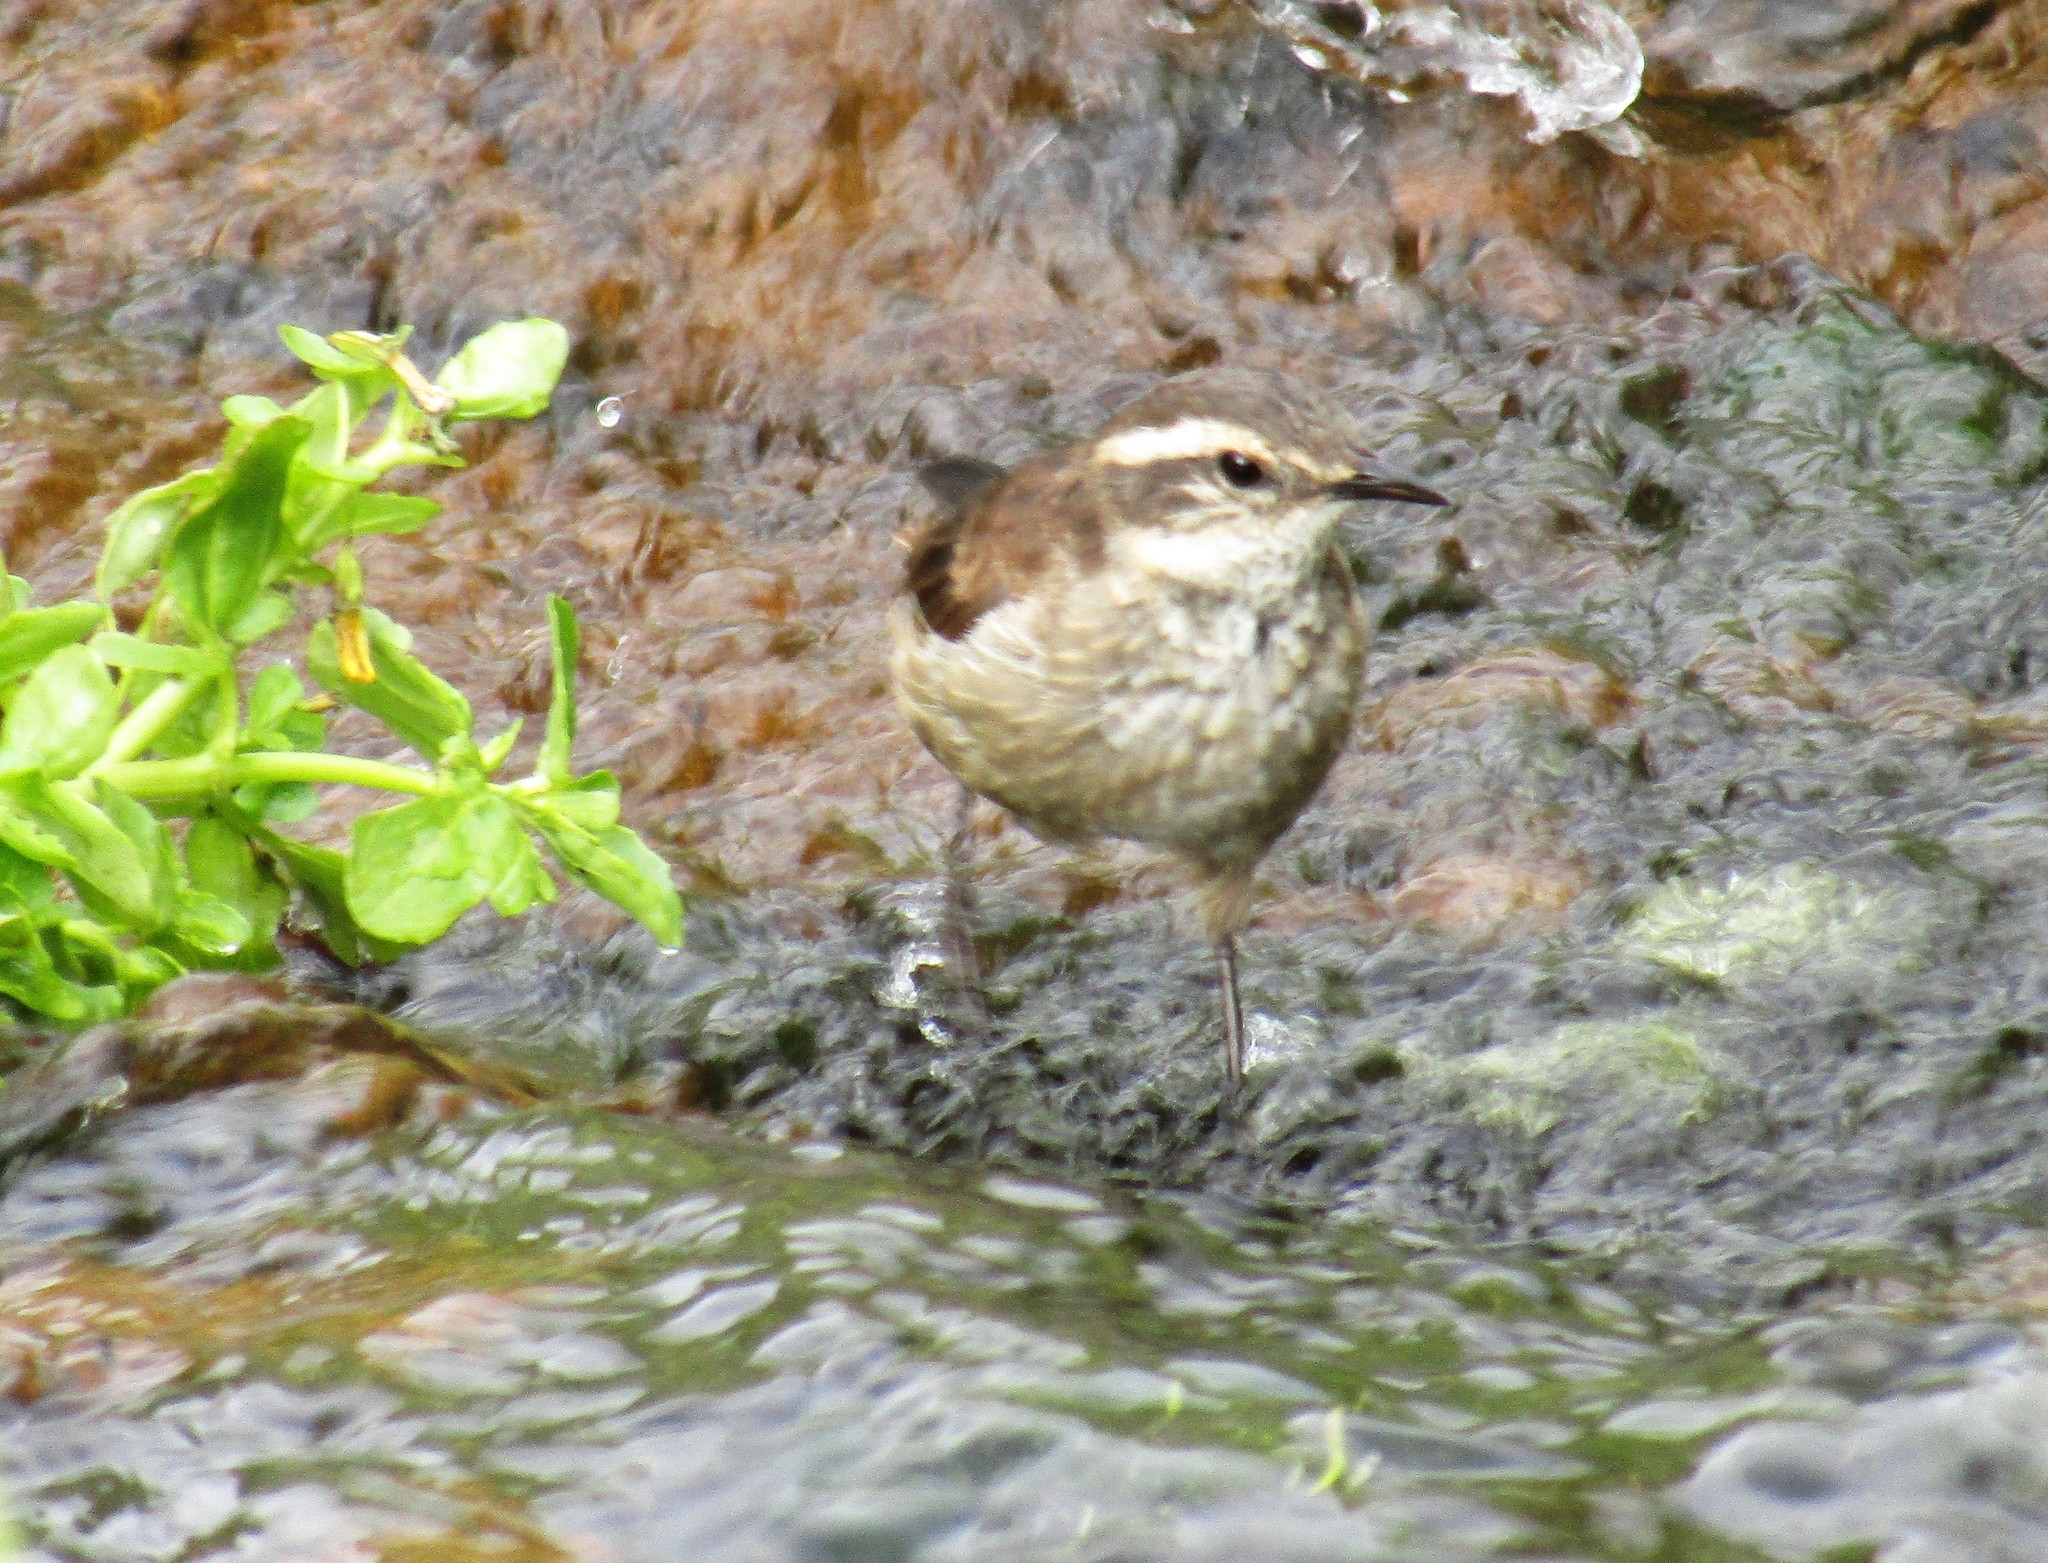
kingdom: Animalia
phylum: Chordata
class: Aves
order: Passeriformes
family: Furnariidae
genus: Cinclodes
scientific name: Cinclodes comechingonus
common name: Cordoba cinclodes
